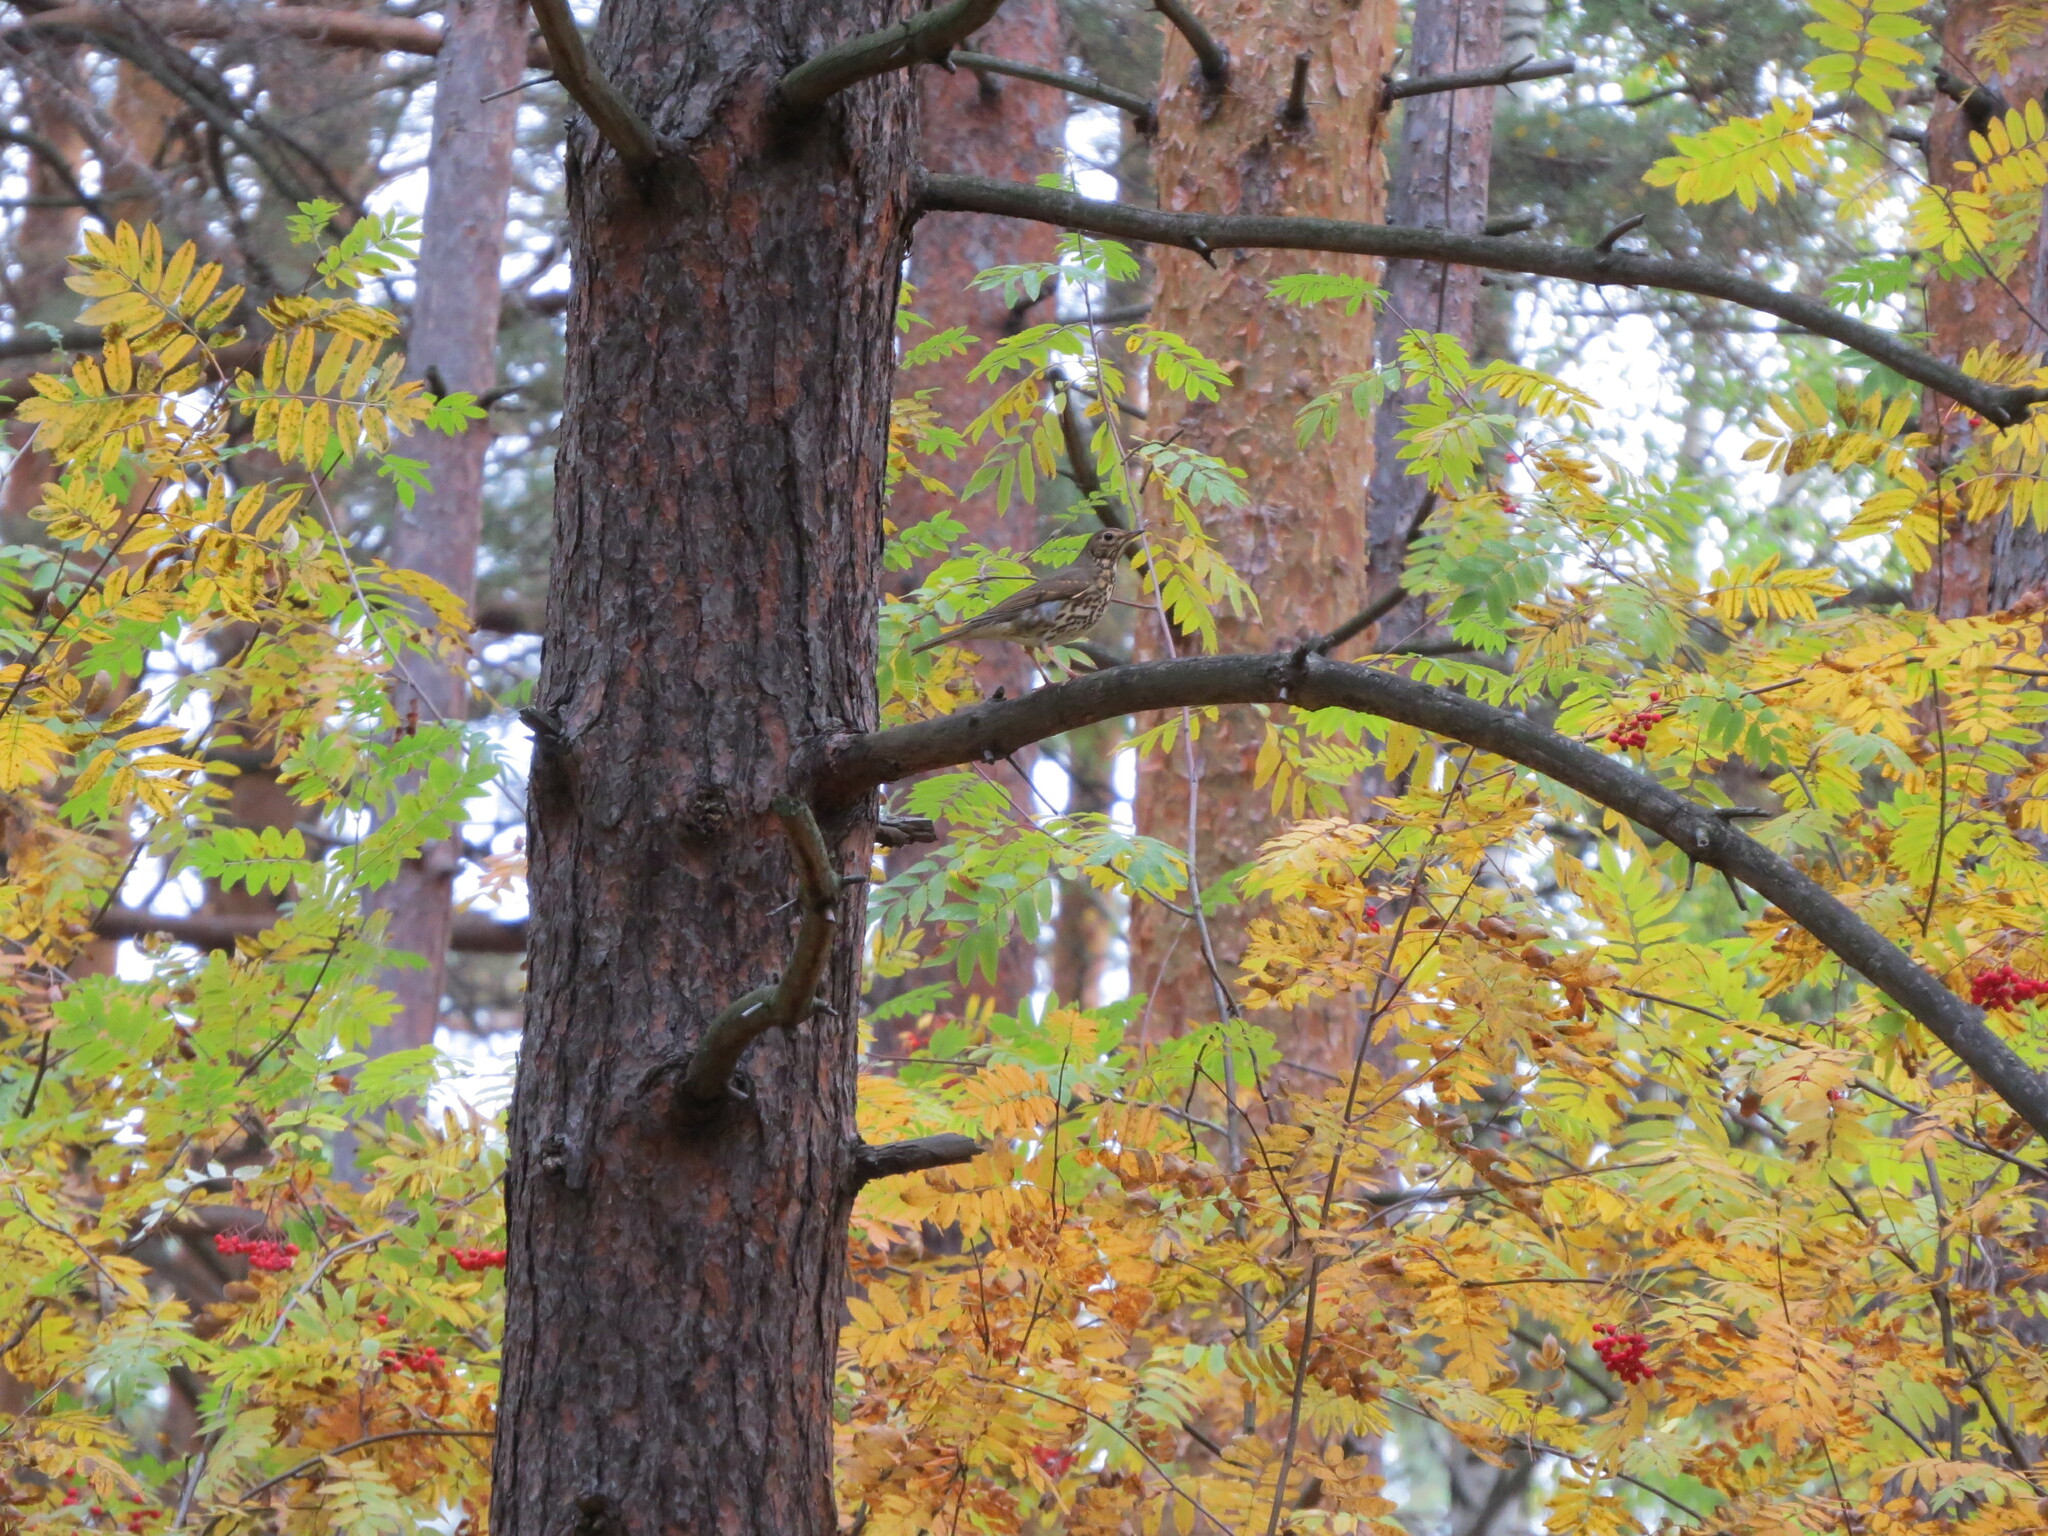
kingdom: Animalia
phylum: Chordata
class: Aves
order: Passeriformes
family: Turdidae
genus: Turdus
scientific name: Turdus philomelos
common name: Song thrush
